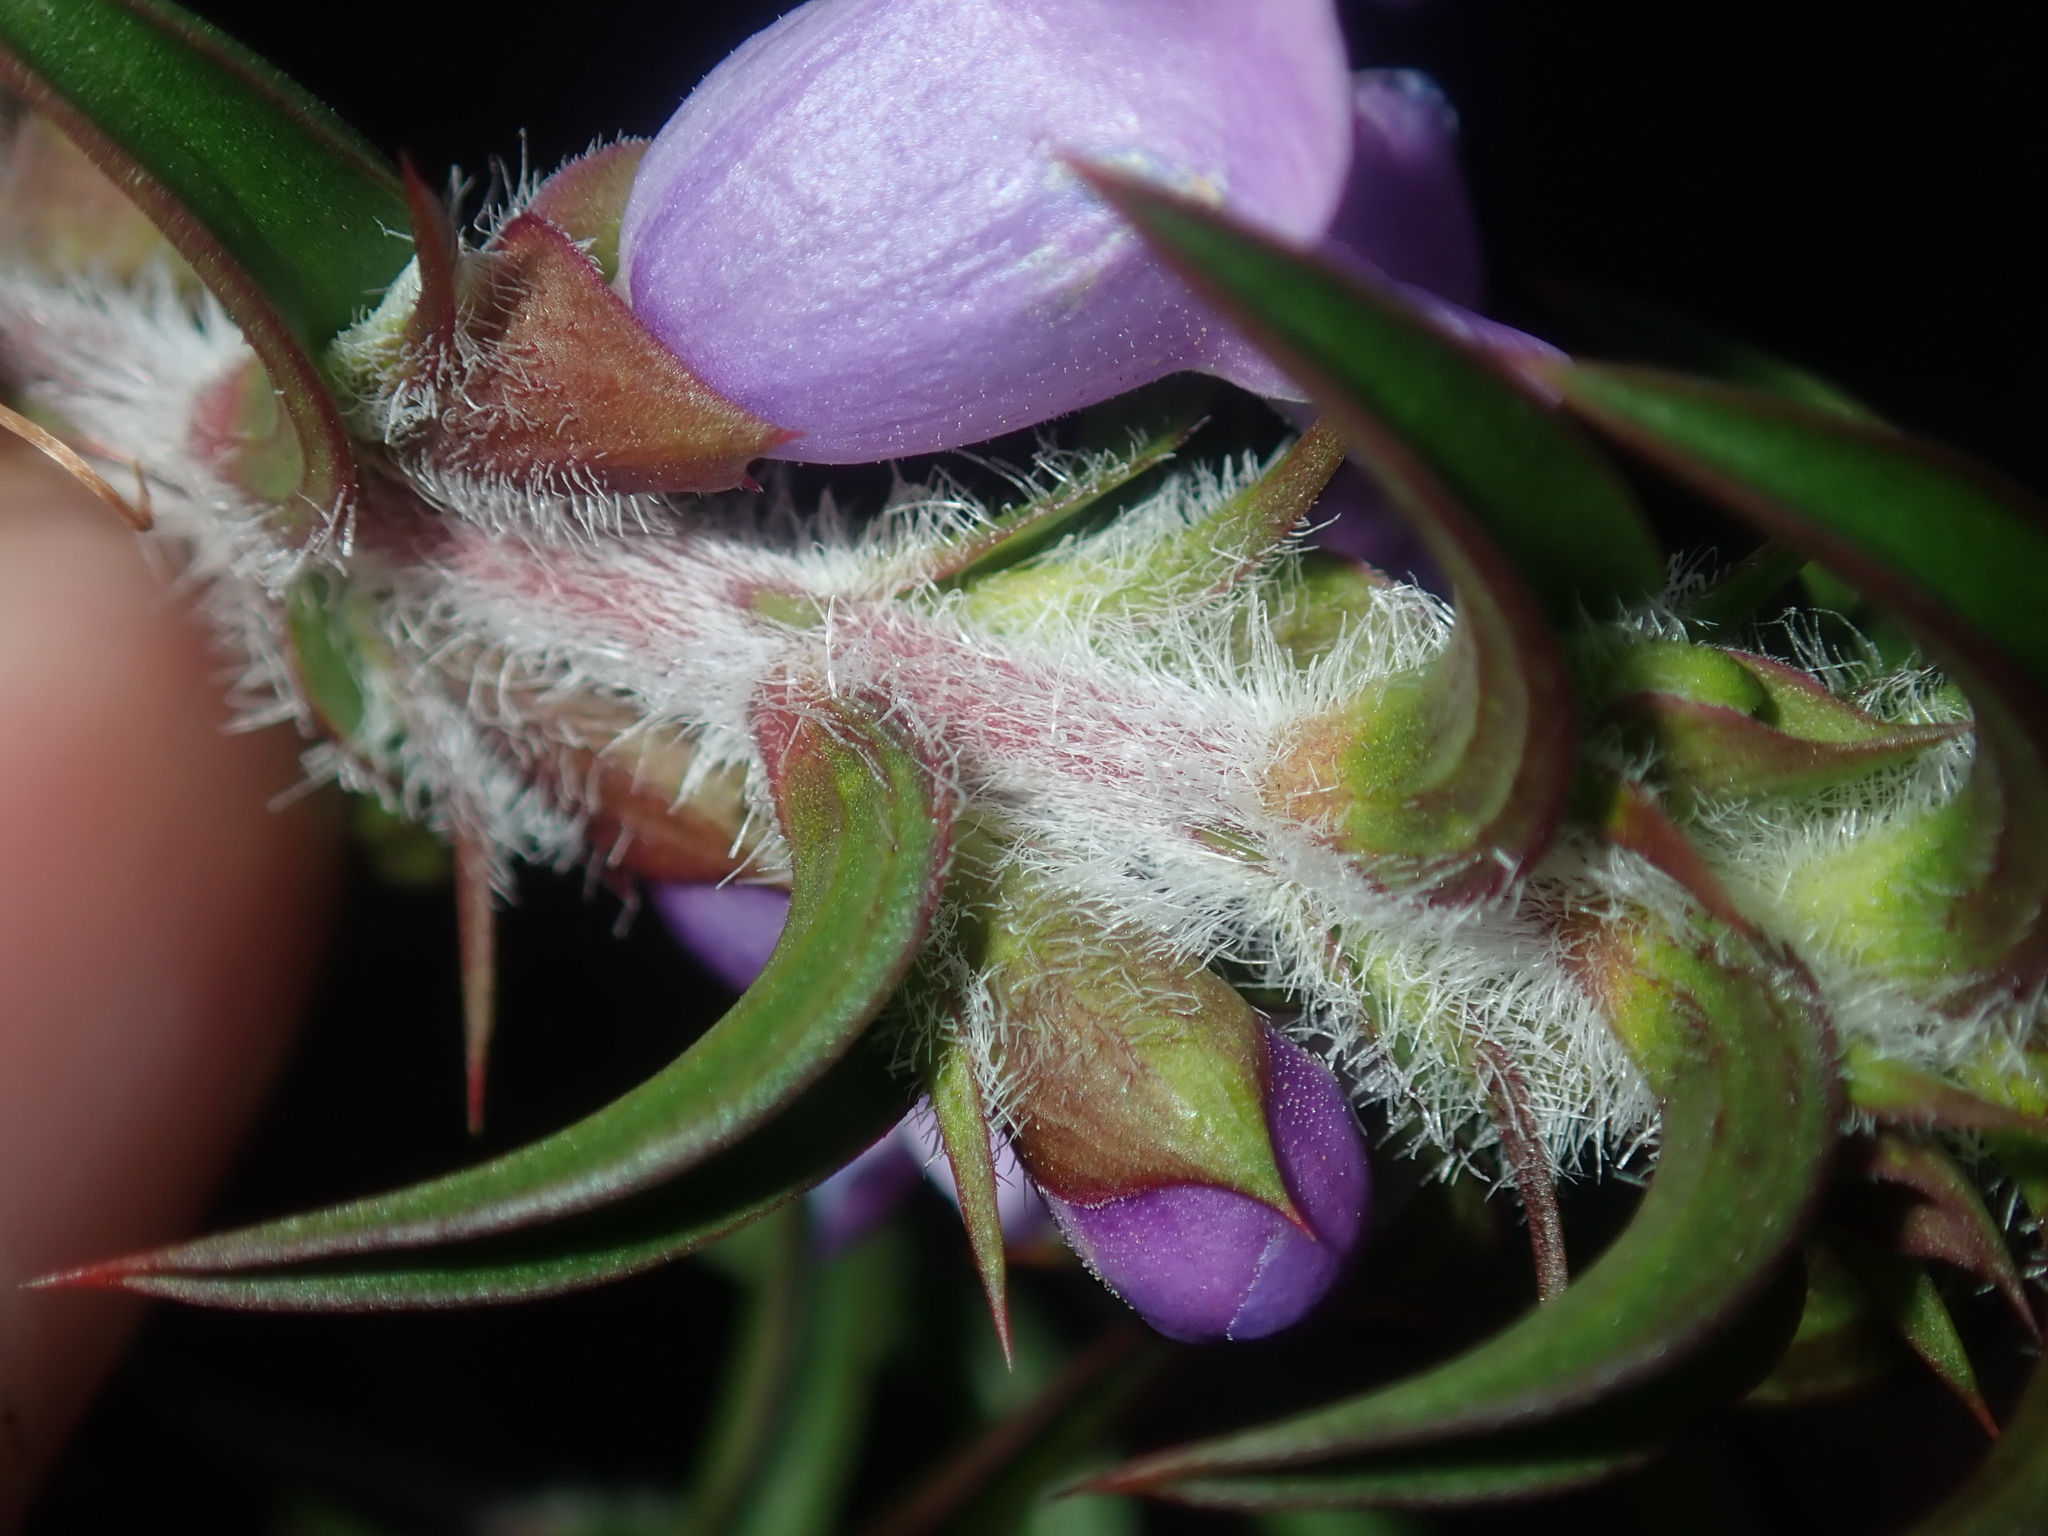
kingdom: Plantae
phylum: Tracheophyta
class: Magnoliopsida
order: Lamiales
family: Lamiaceae
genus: Hemiandra
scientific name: Hemiandra pungens
